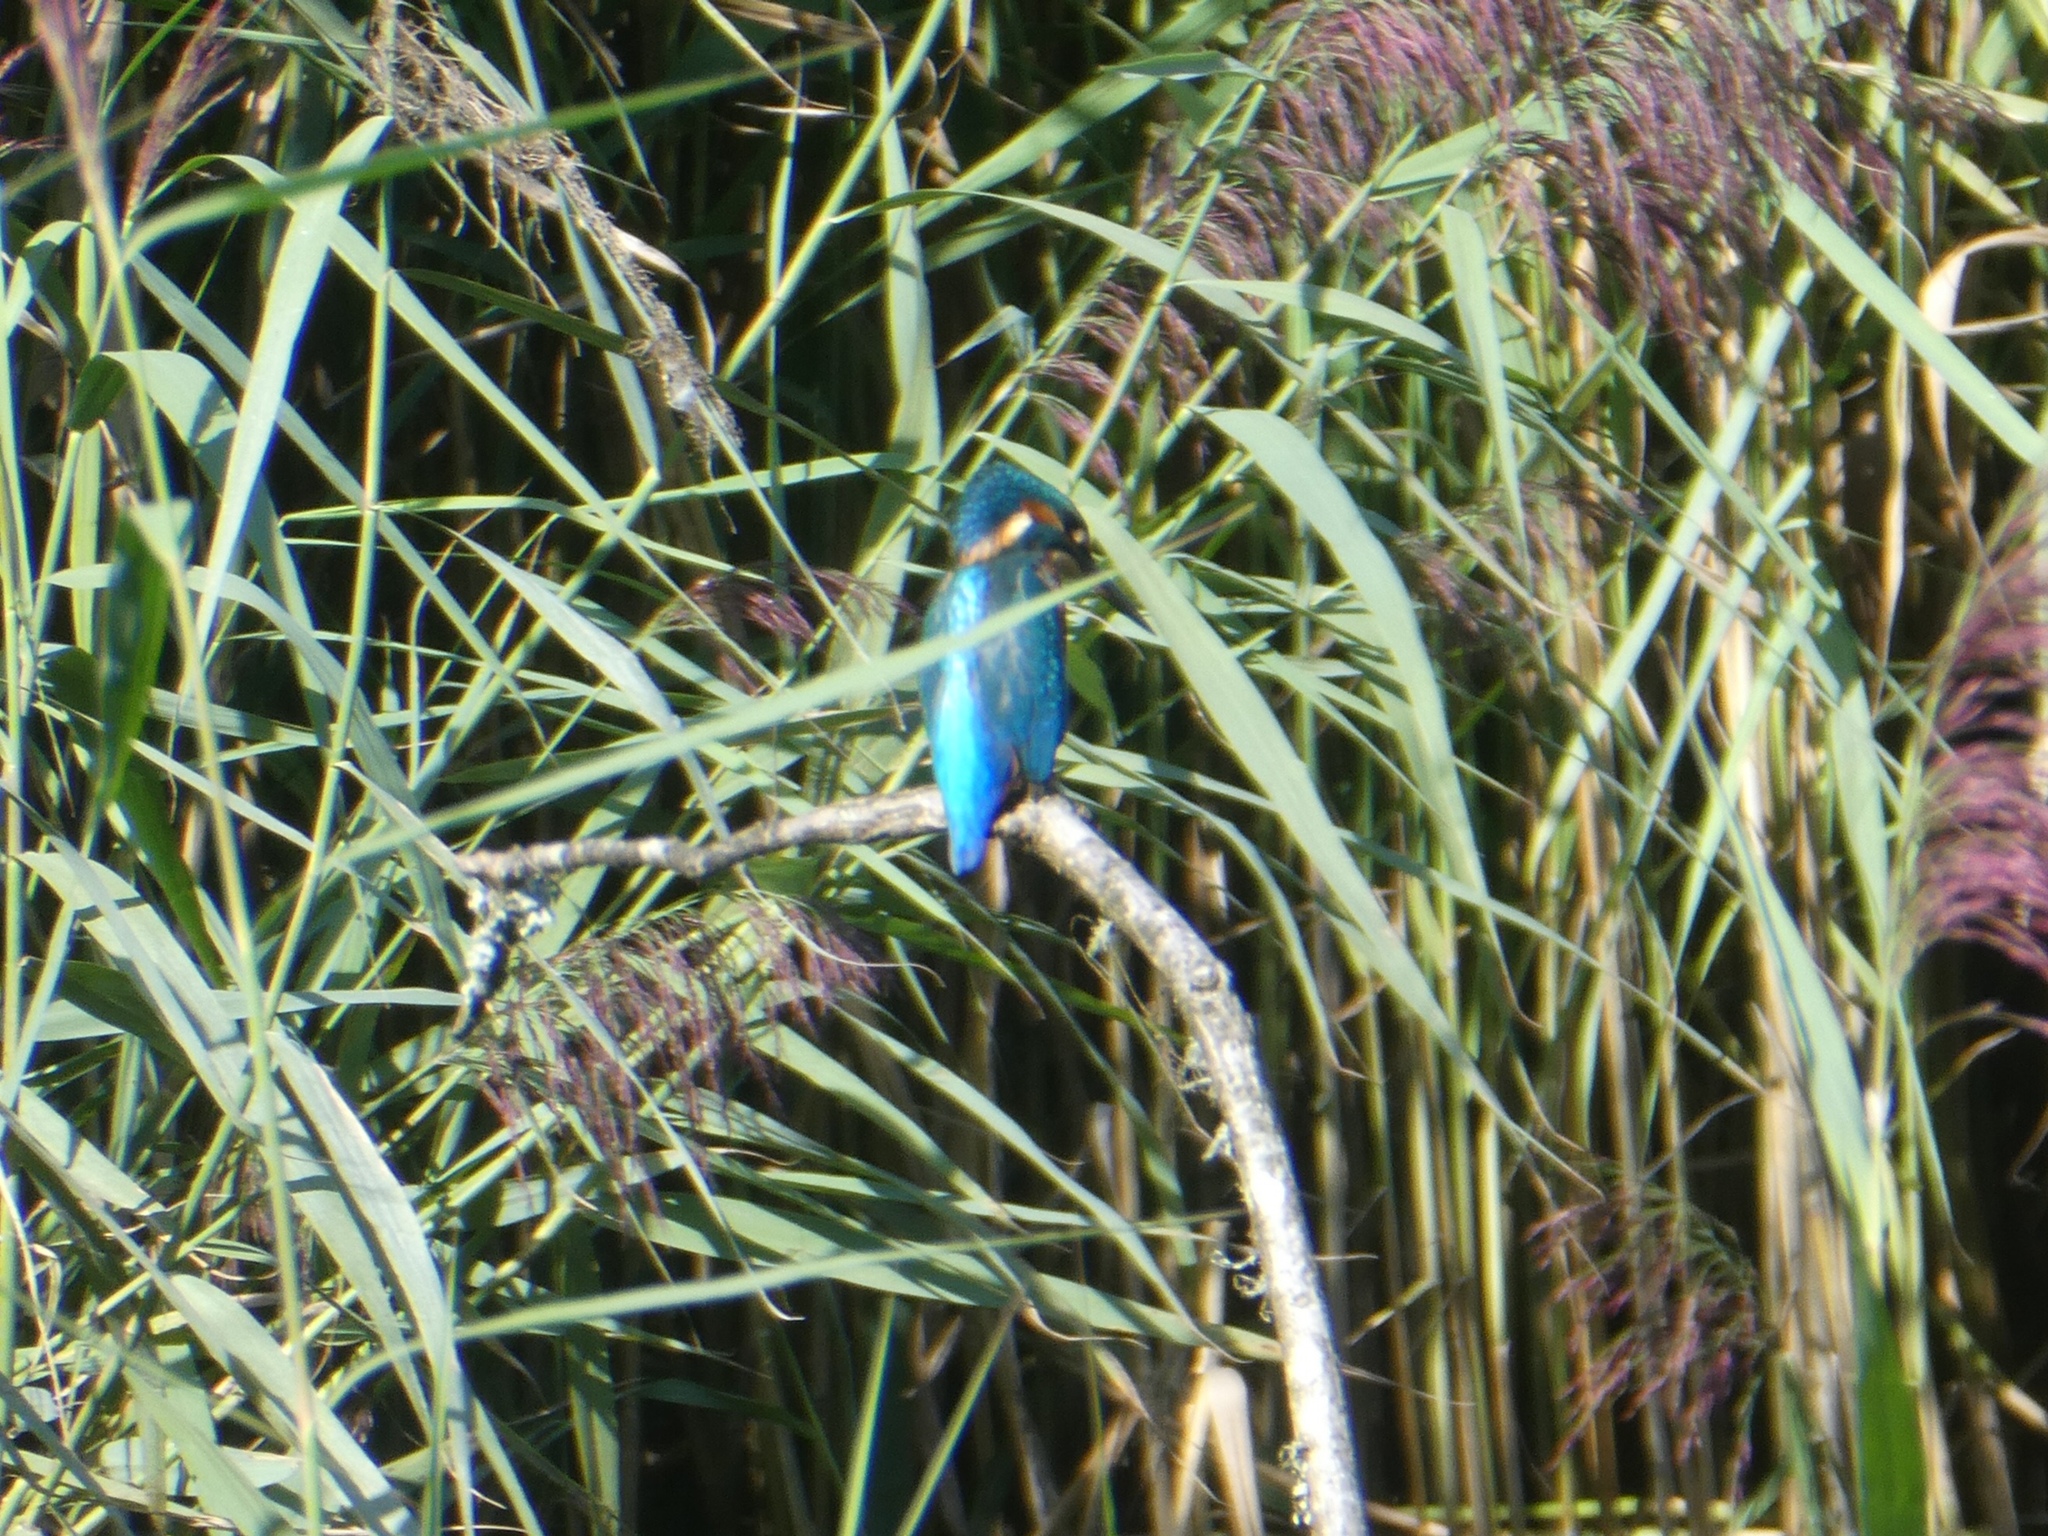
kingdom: Animalia
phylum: Chordata
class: Aves
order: Coraciiformes
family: Alcedinidae
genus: Alcedo
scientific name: Alcedo atthis
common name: Common kingfisher
